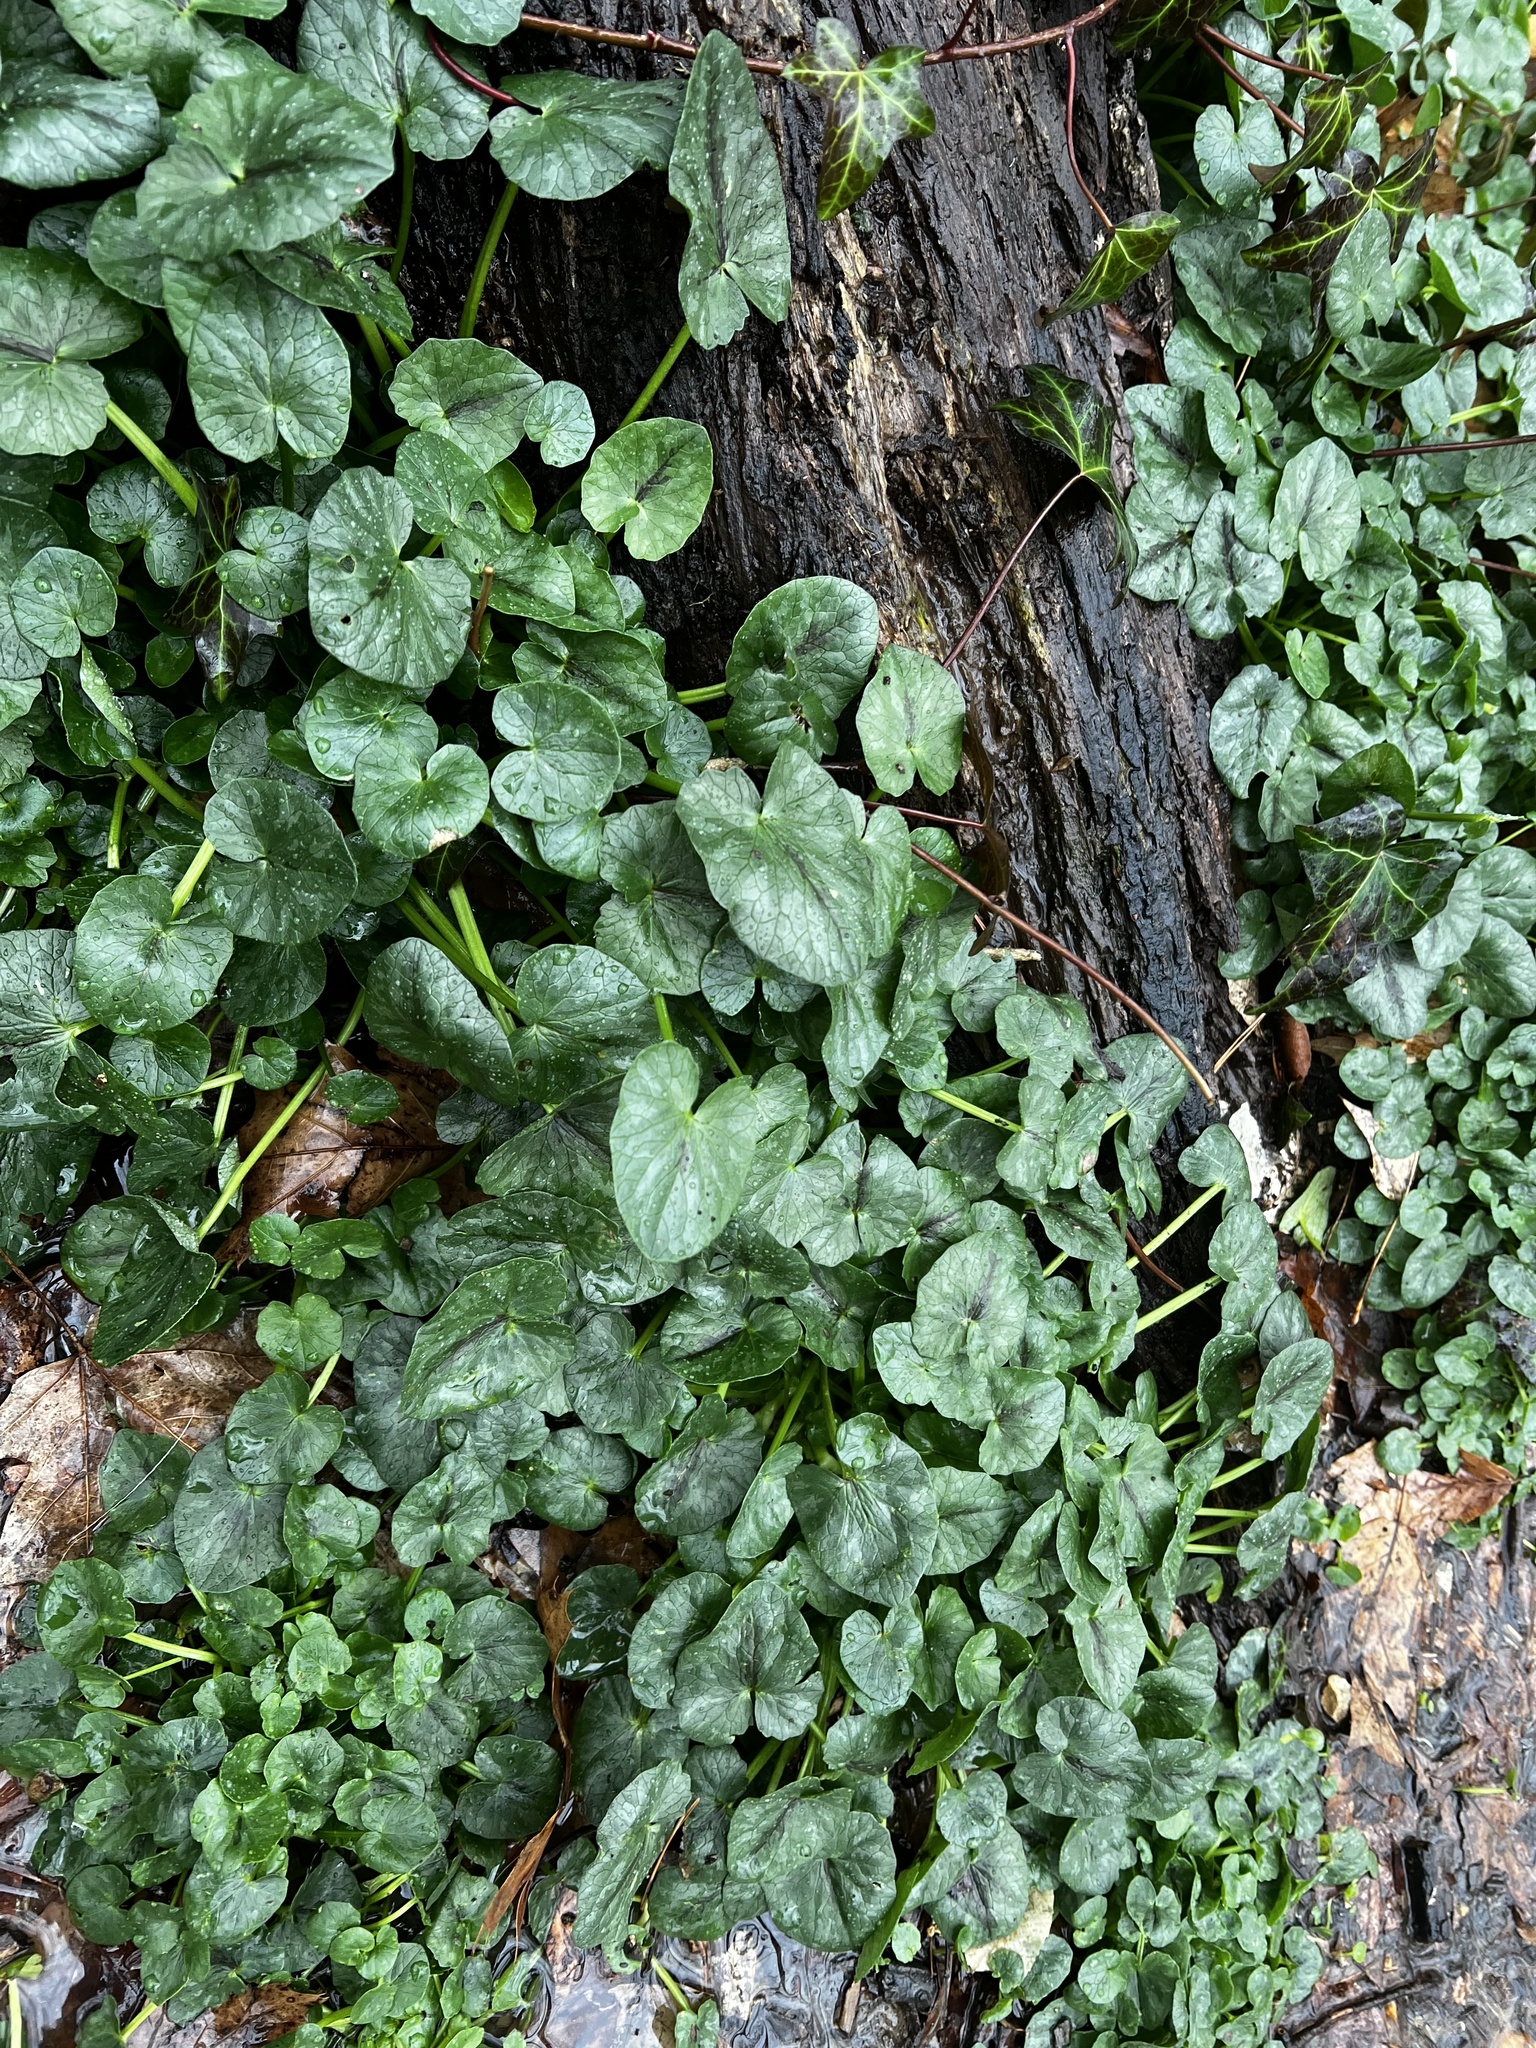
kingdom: Plantae
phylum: Tracheophyta
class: Magnoliopsida
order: Ranunculales
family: Ranunculaceae
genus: Ficaria
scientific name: Ficaria verna
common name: Lesser celandine
